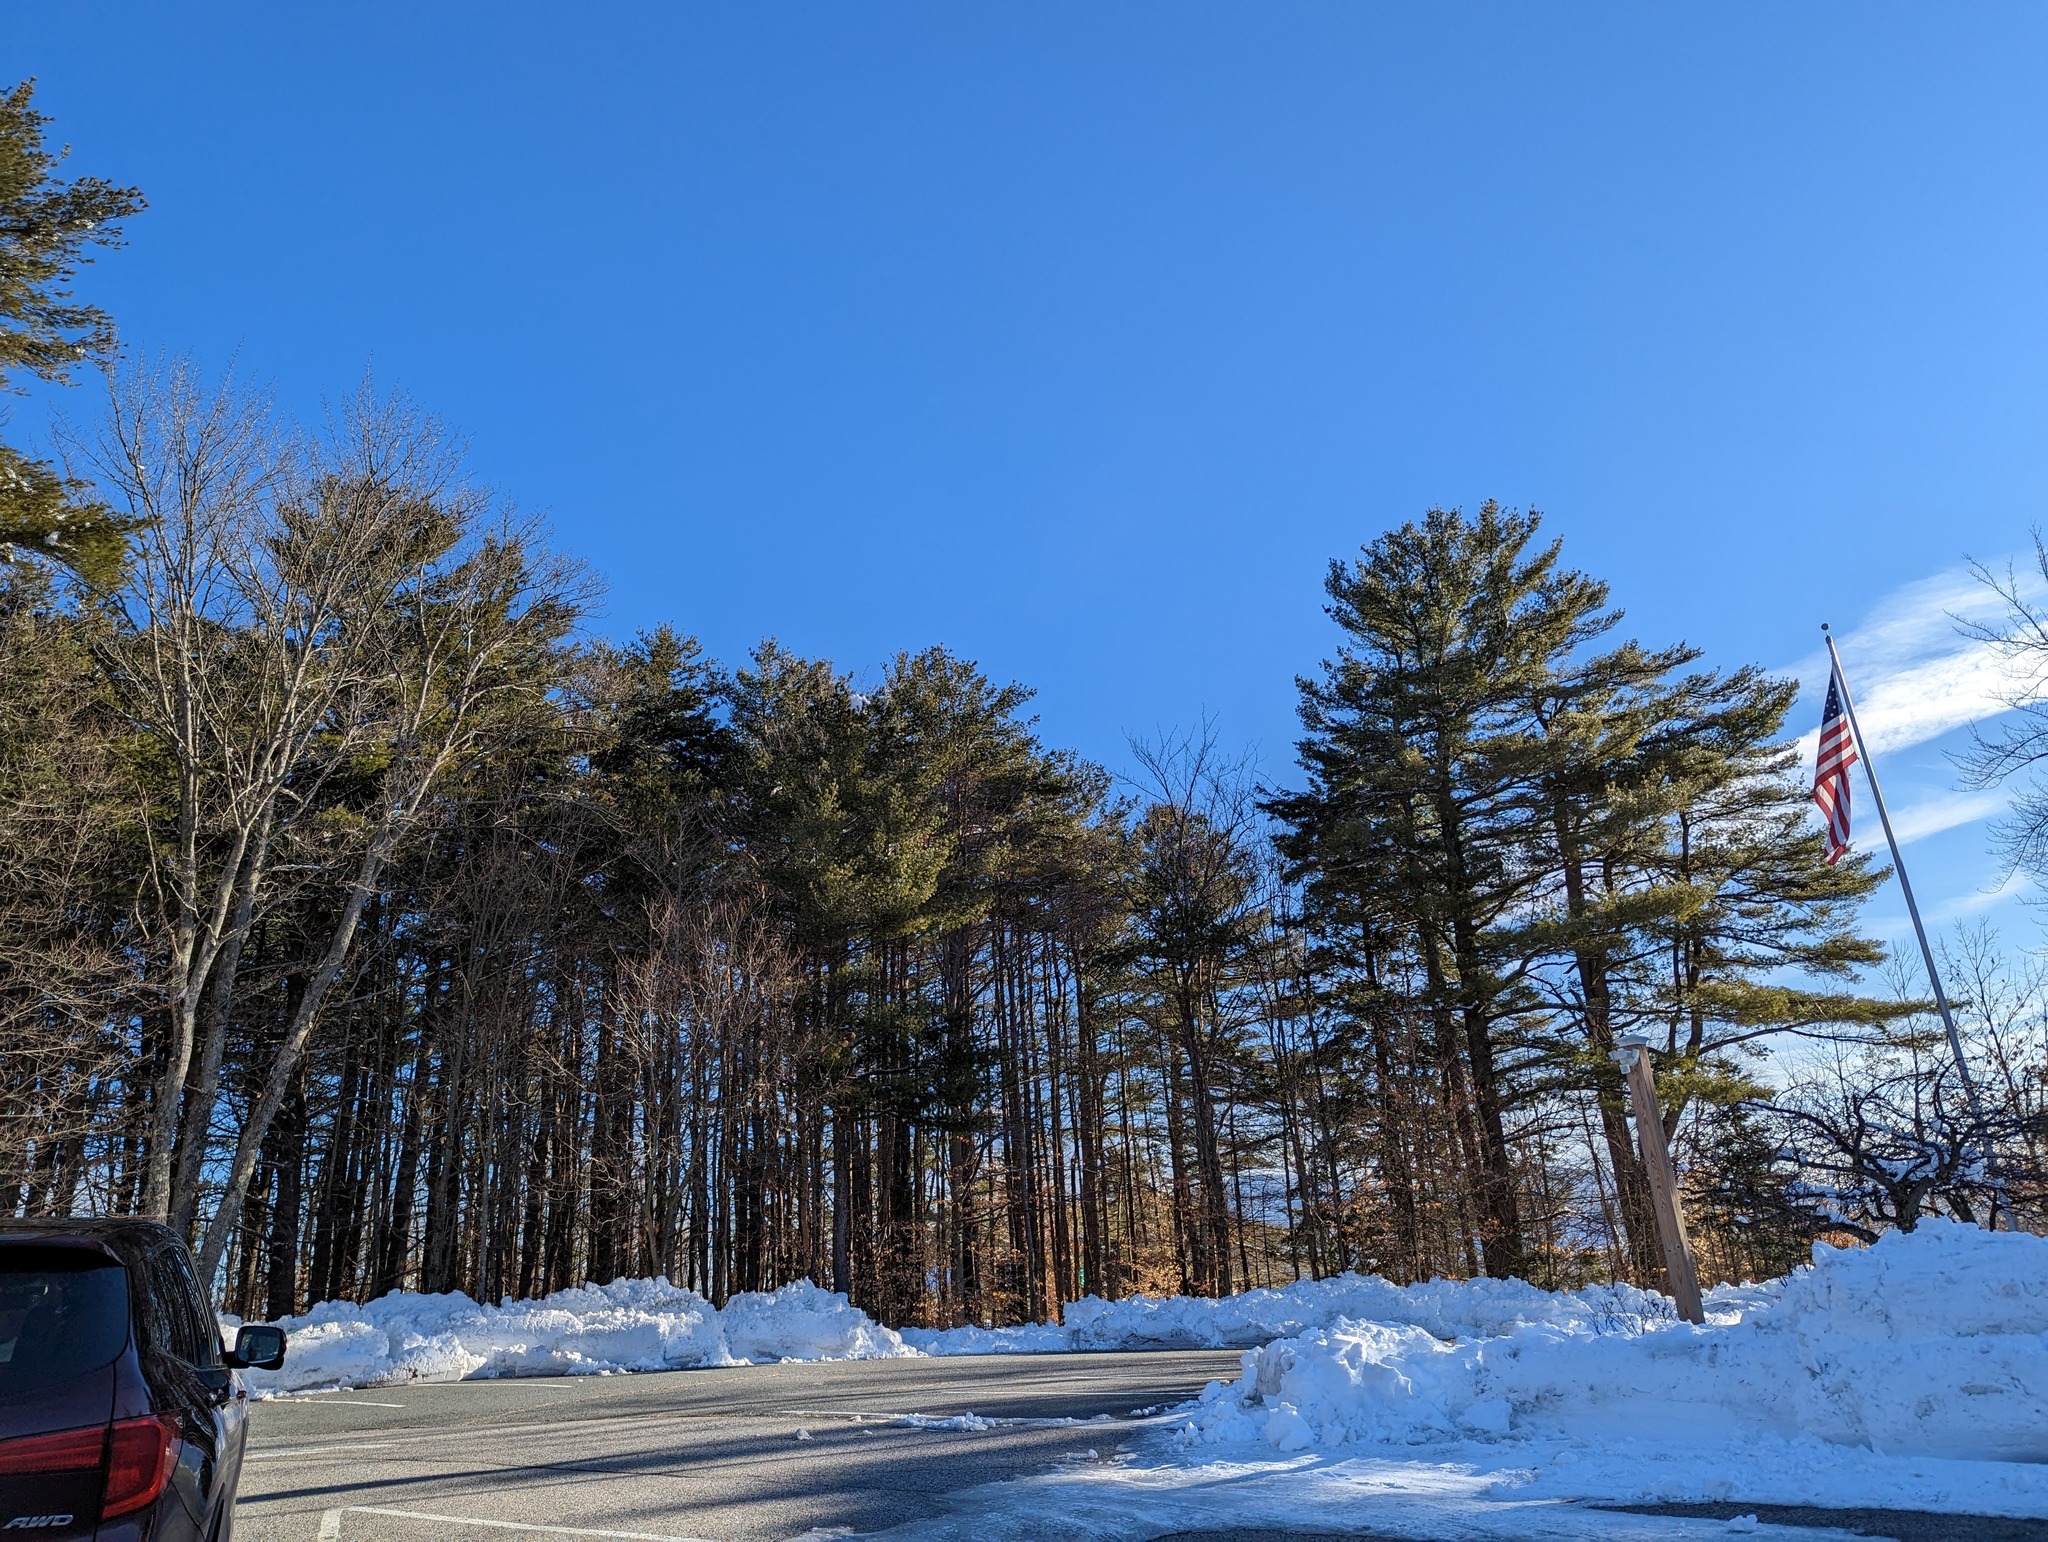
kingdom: Plantae
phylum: Tracheophyta
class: Pinopsida
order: Pinales
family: Pinaceae
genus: Pinus
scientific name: Pinus strobus
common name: Weymouth pine
